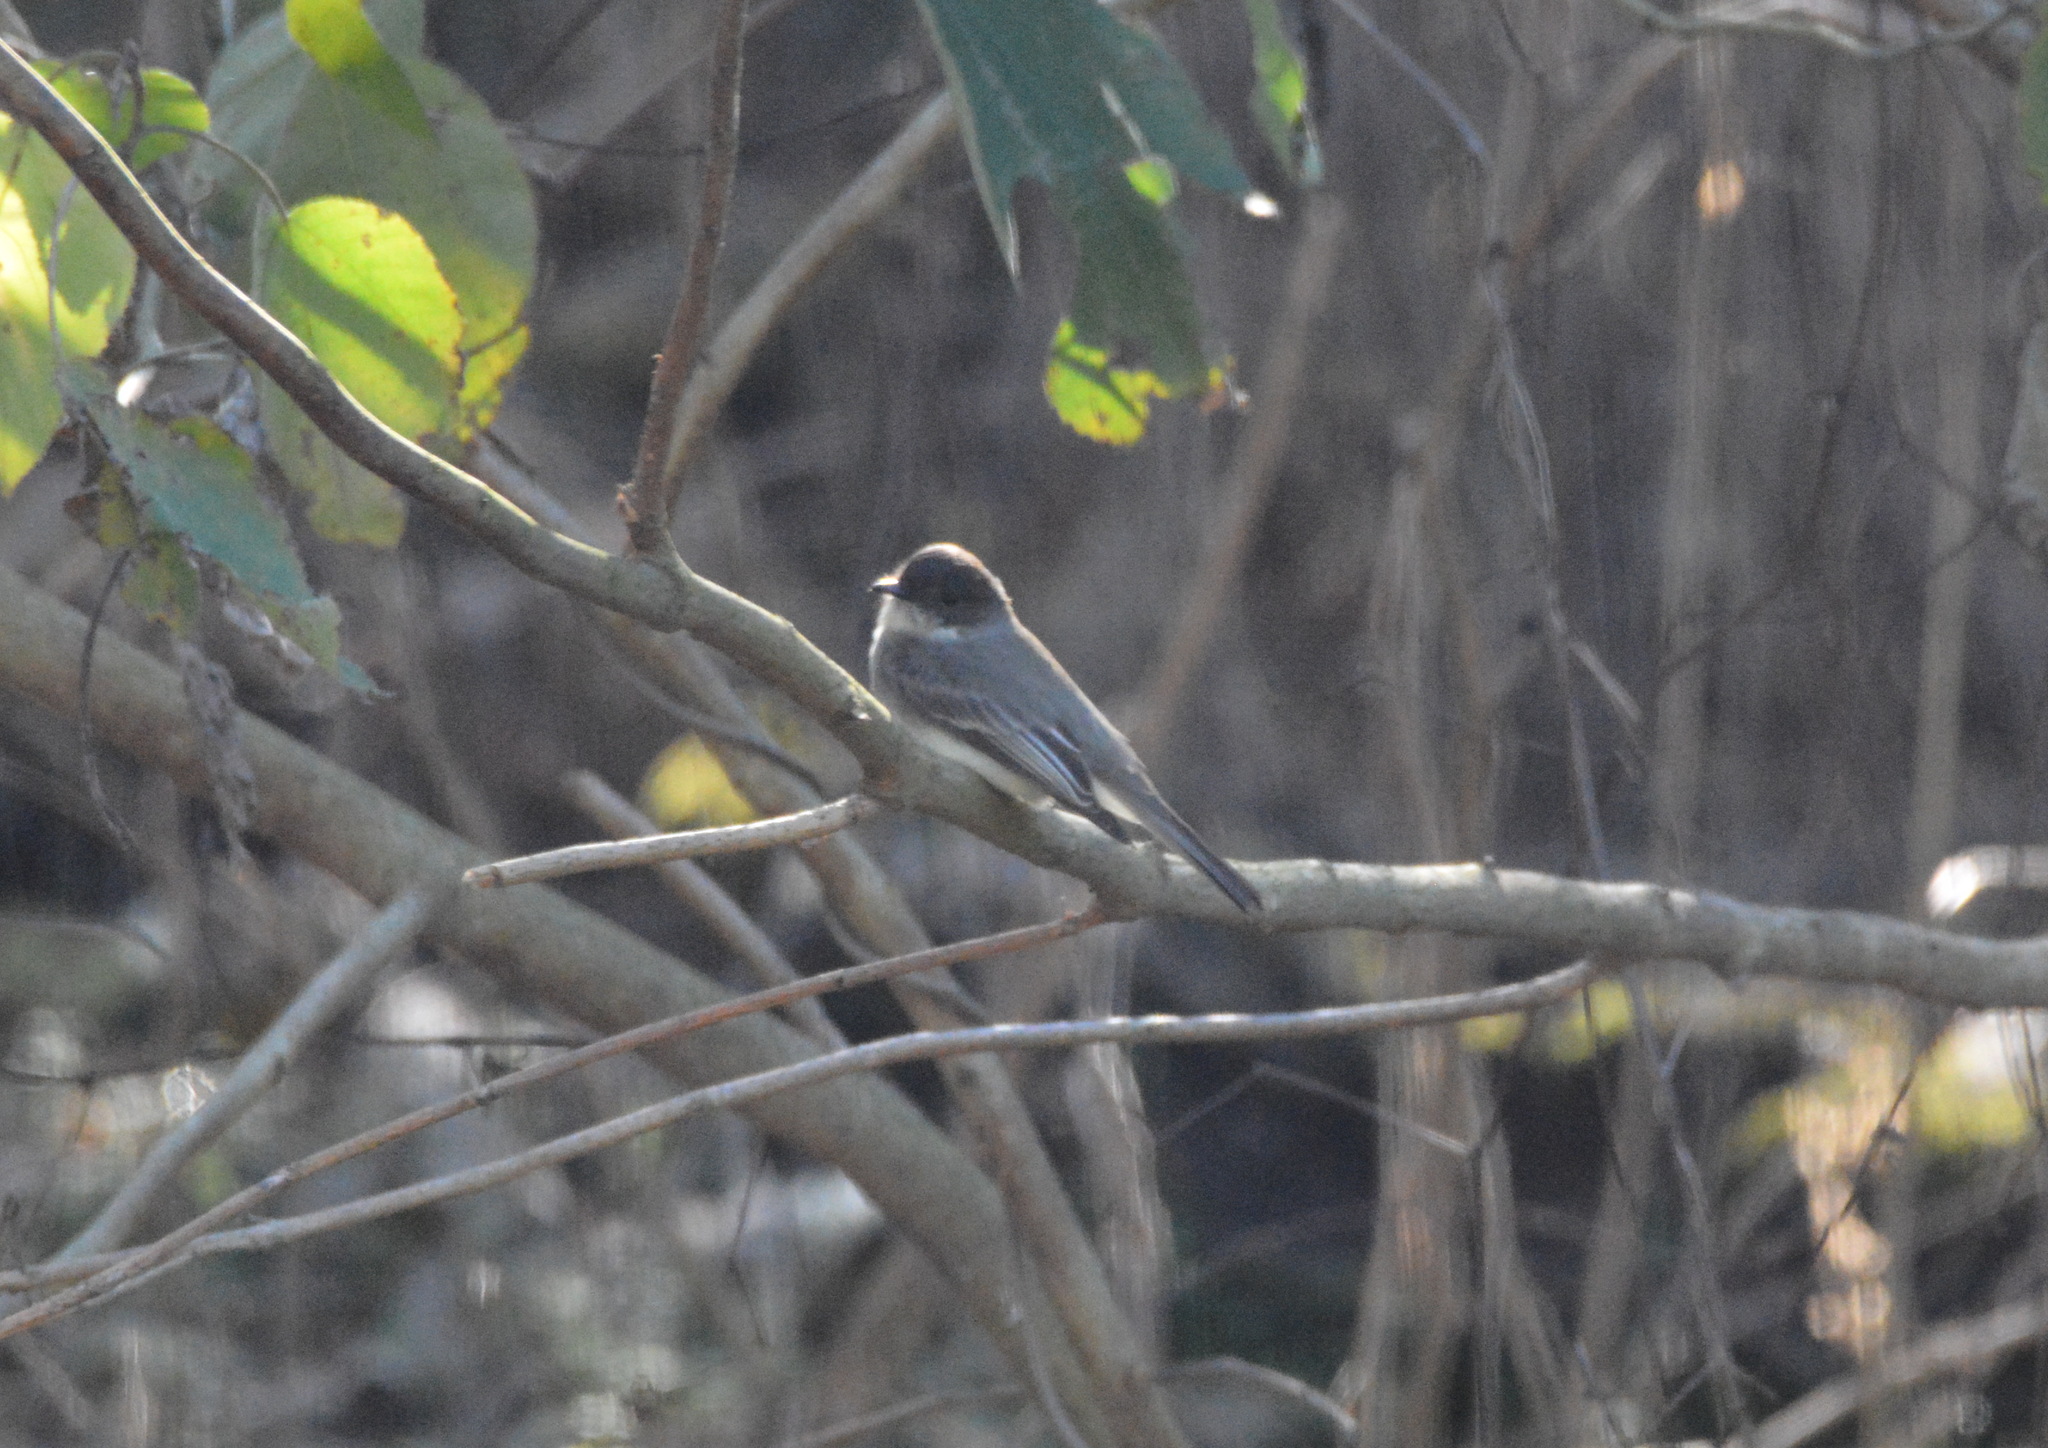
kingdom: Animalia
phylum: Chordata
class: Aves
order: Passeriformes
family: Tyrannidae
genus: Sayornis
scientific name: Sayornis phoebe
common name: Eastern phoebe
